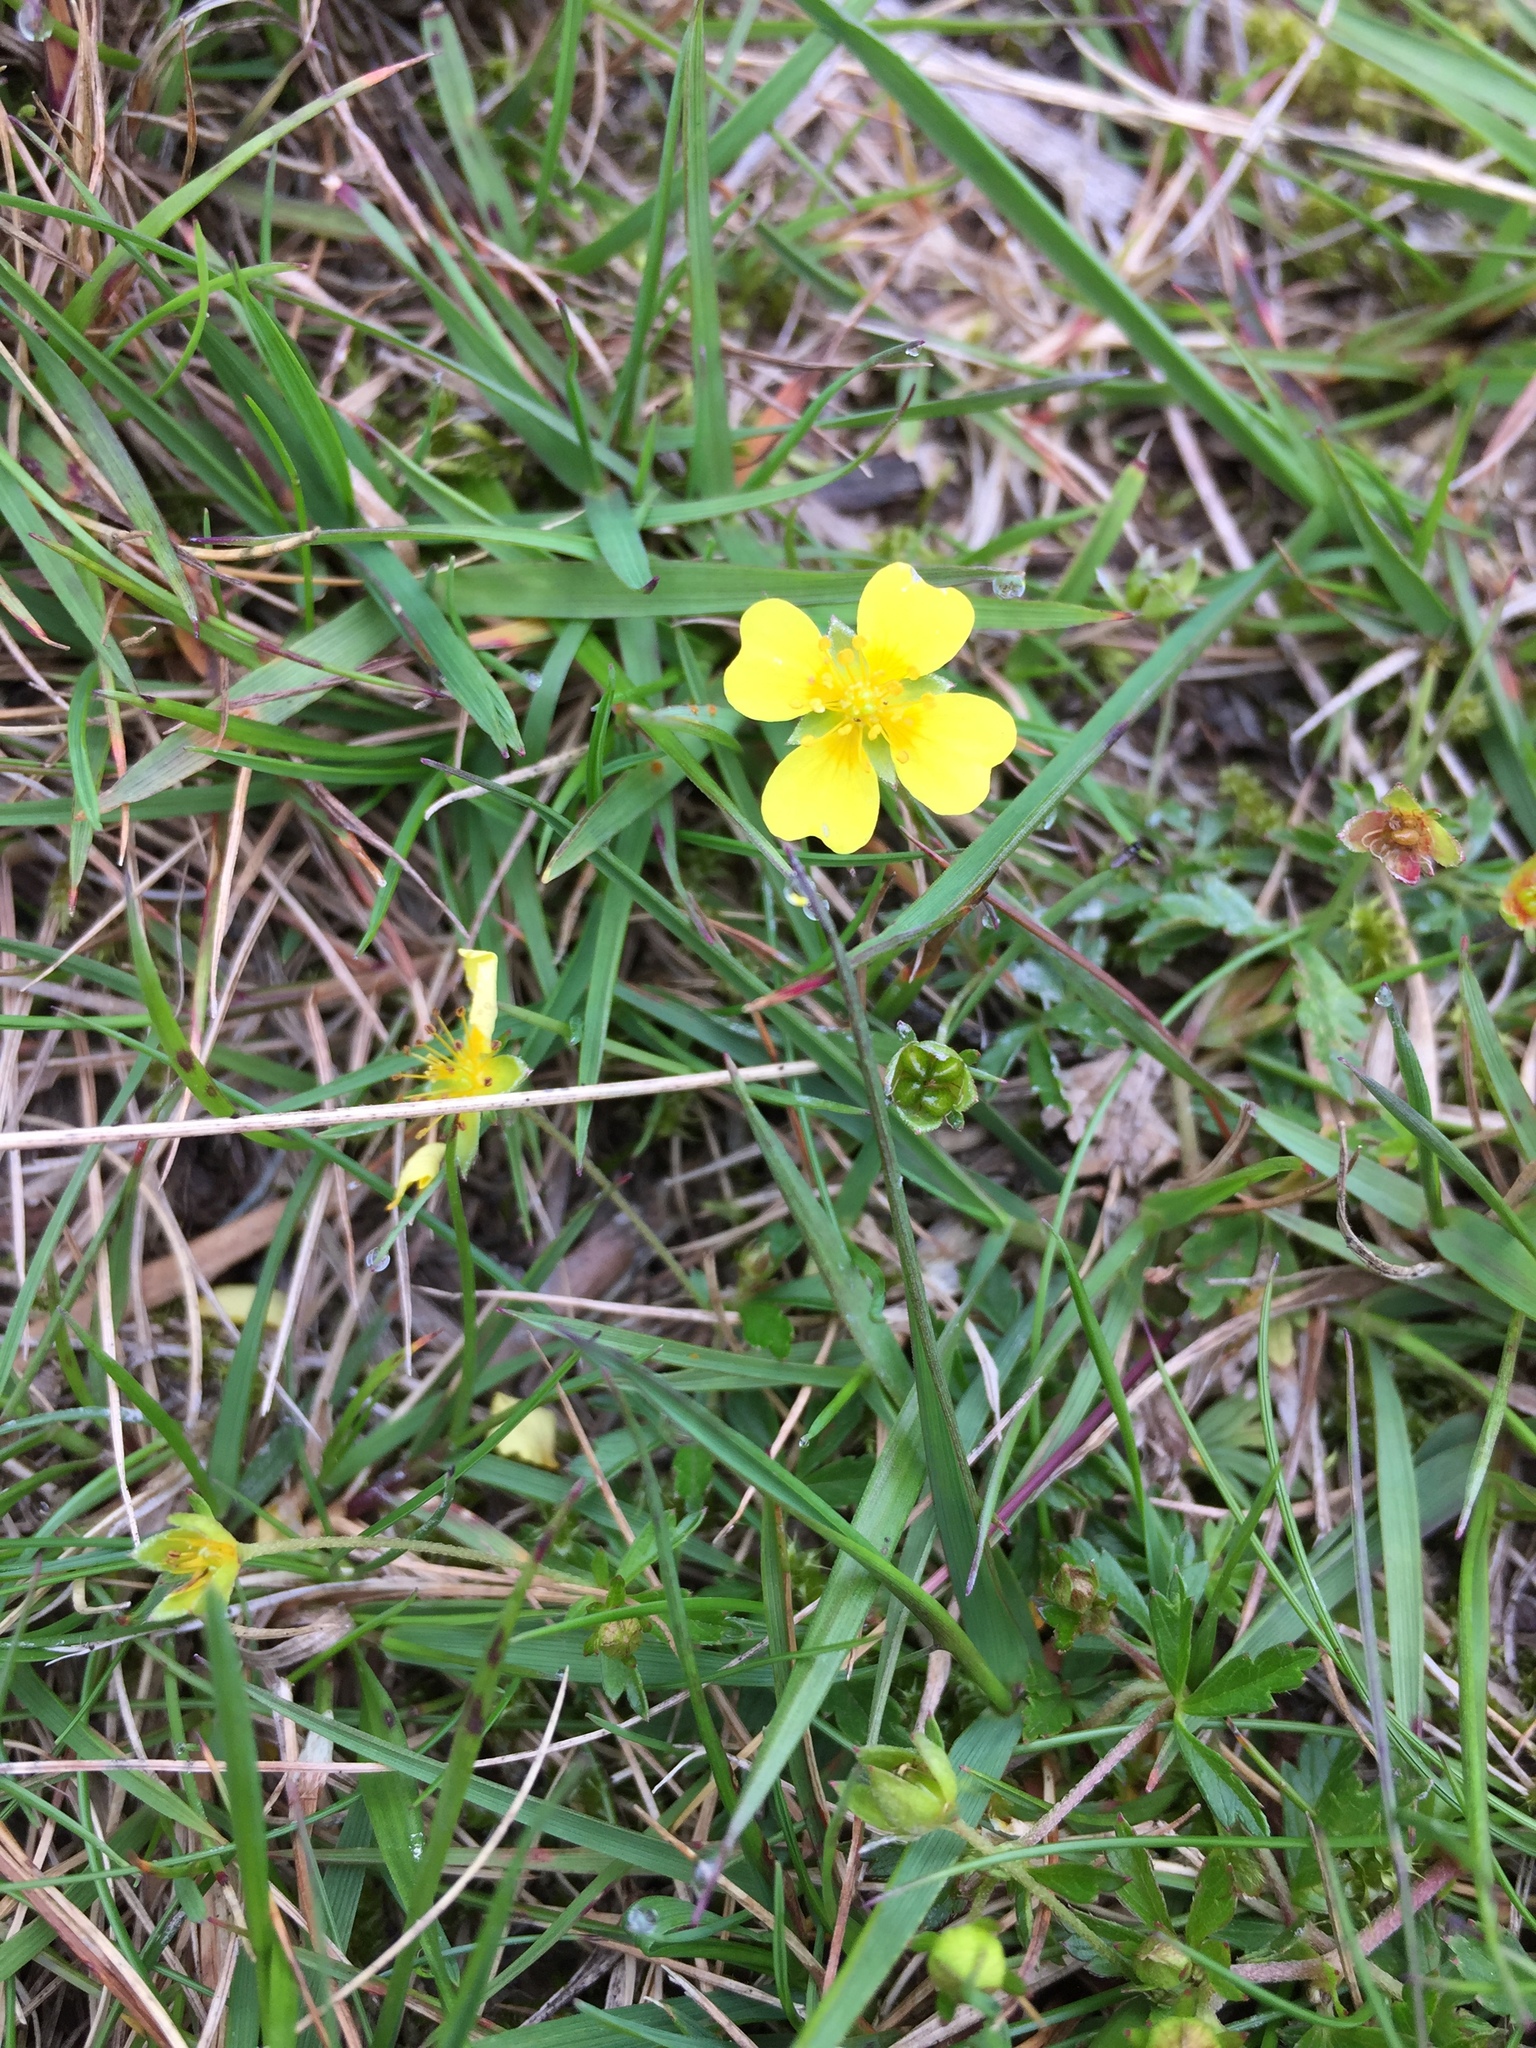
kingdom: Plantae
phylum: Tracheophyta
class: Magnoliopsida
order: Rosales
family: Rosaceae
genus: Potentilla
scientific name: Potentilla erecta
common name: Tormentil
